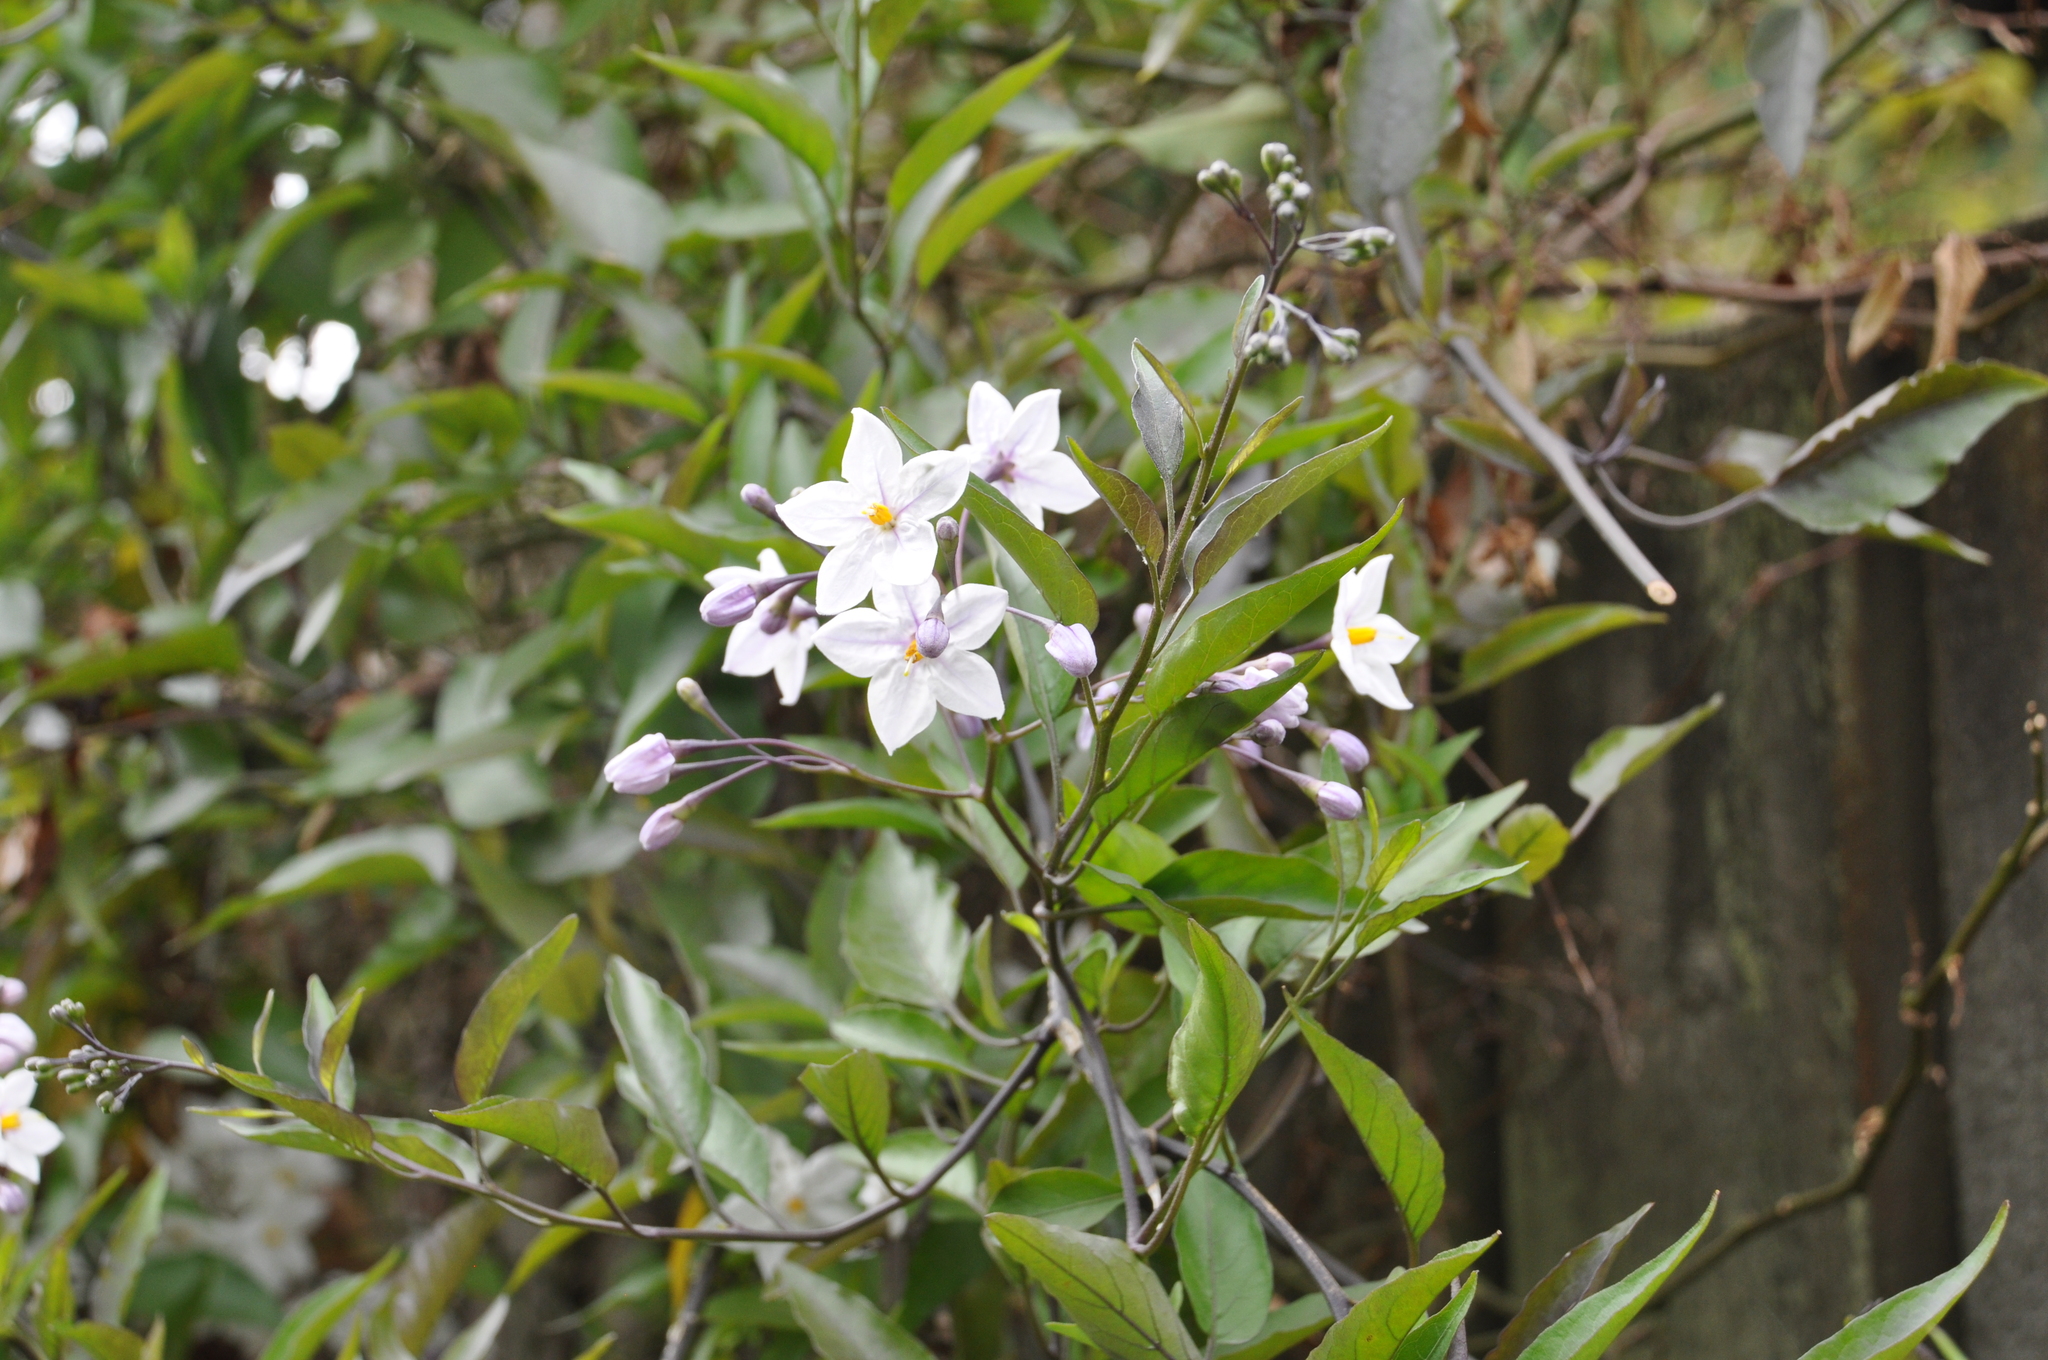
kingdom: Plantae
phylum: Tracheophyta
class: Magnoliopsida
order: Solanales
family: Solanaceae
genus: Solanum
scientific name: Solanum laxum
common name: Nightshade
